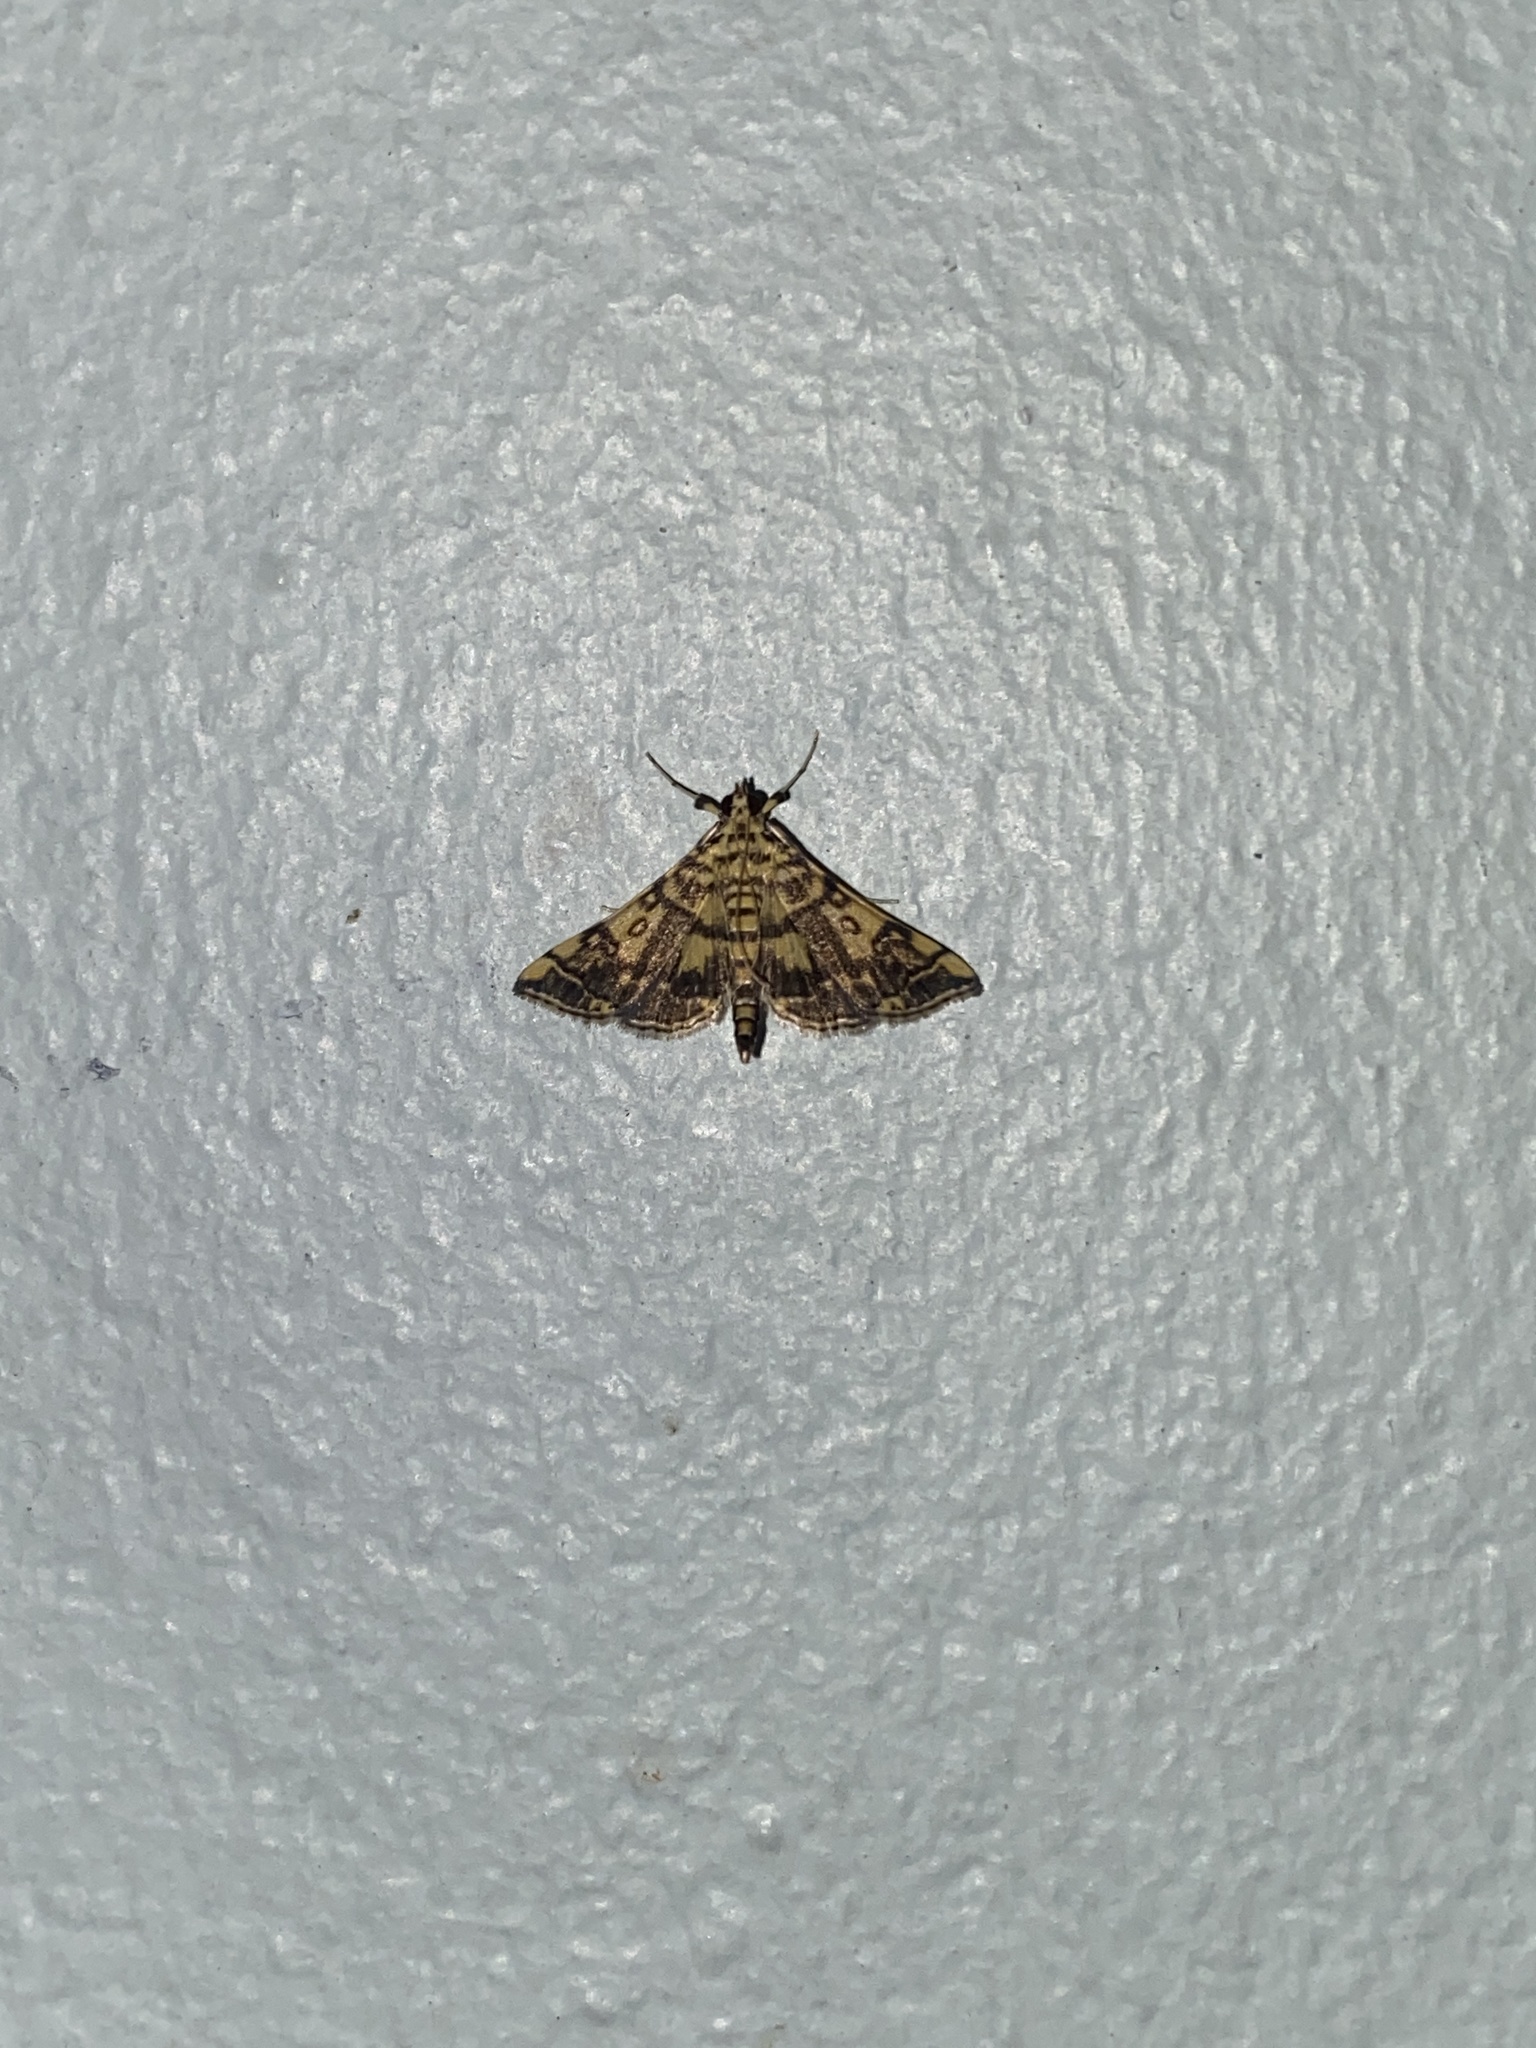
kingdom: Animalia
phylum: Arthropoda
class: Insecta
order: Lepidoptera
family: Crambidae
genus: Apogeshna
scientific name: Apogeshna stenialis
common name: Checkered apogeshna moth
